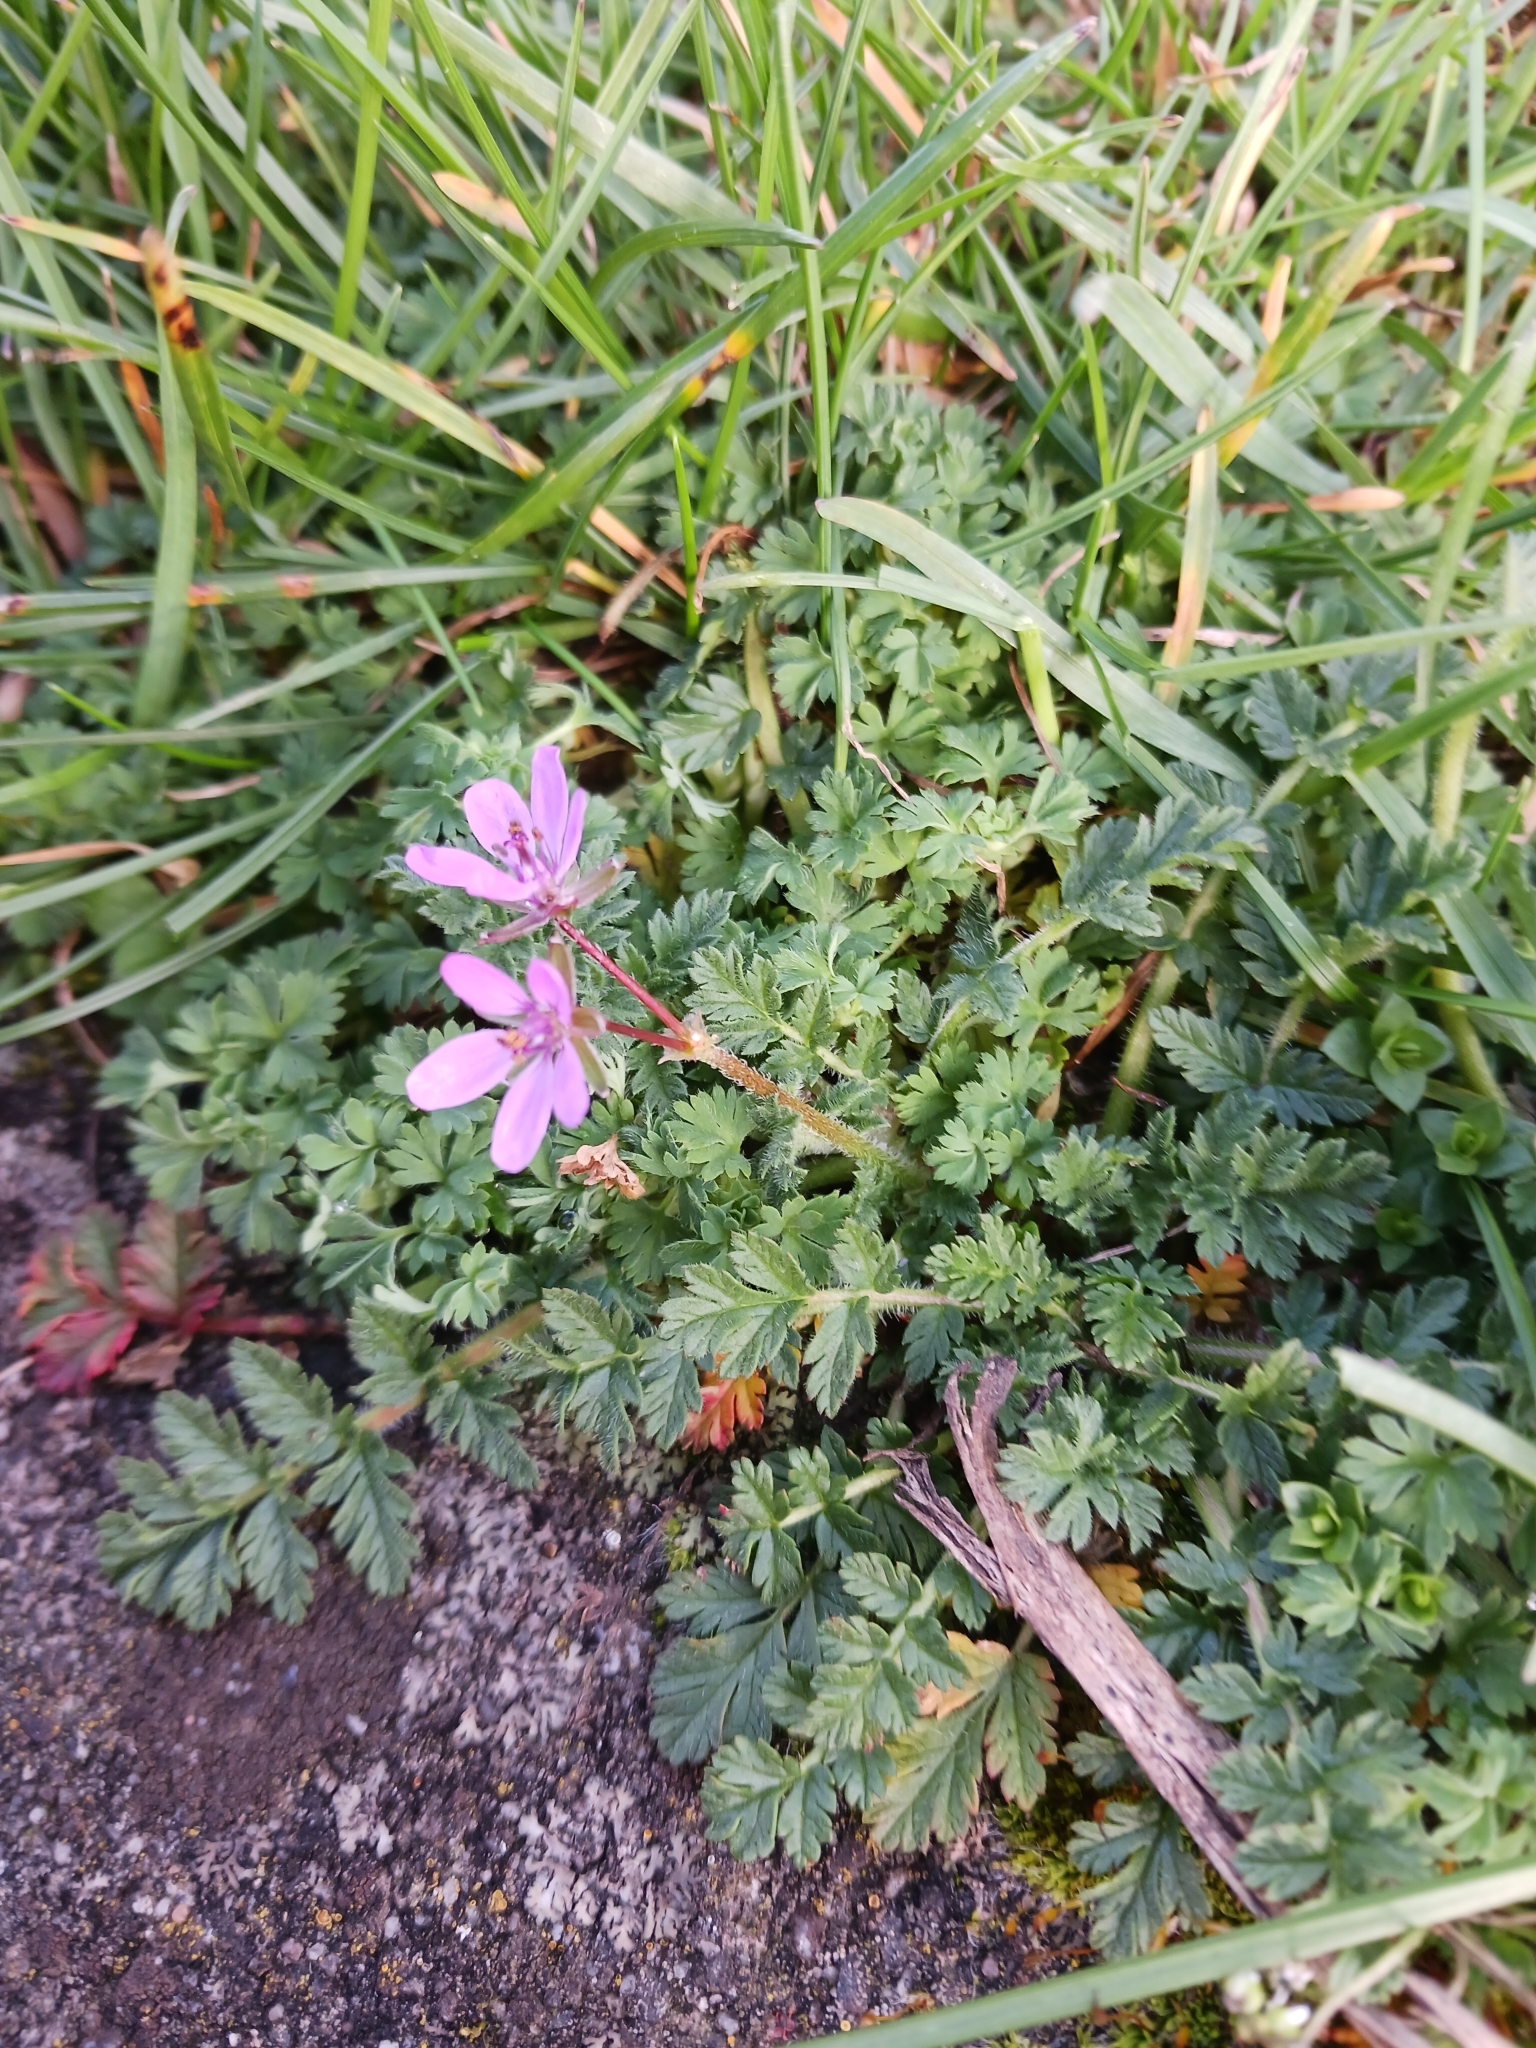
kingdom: Plantae
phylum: Tracheophyta
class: Magnoliopsida
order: Geraniales
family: Geraniaceae
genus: Erodium
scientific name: Erodium cicutarium
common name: Common stork's-bill
